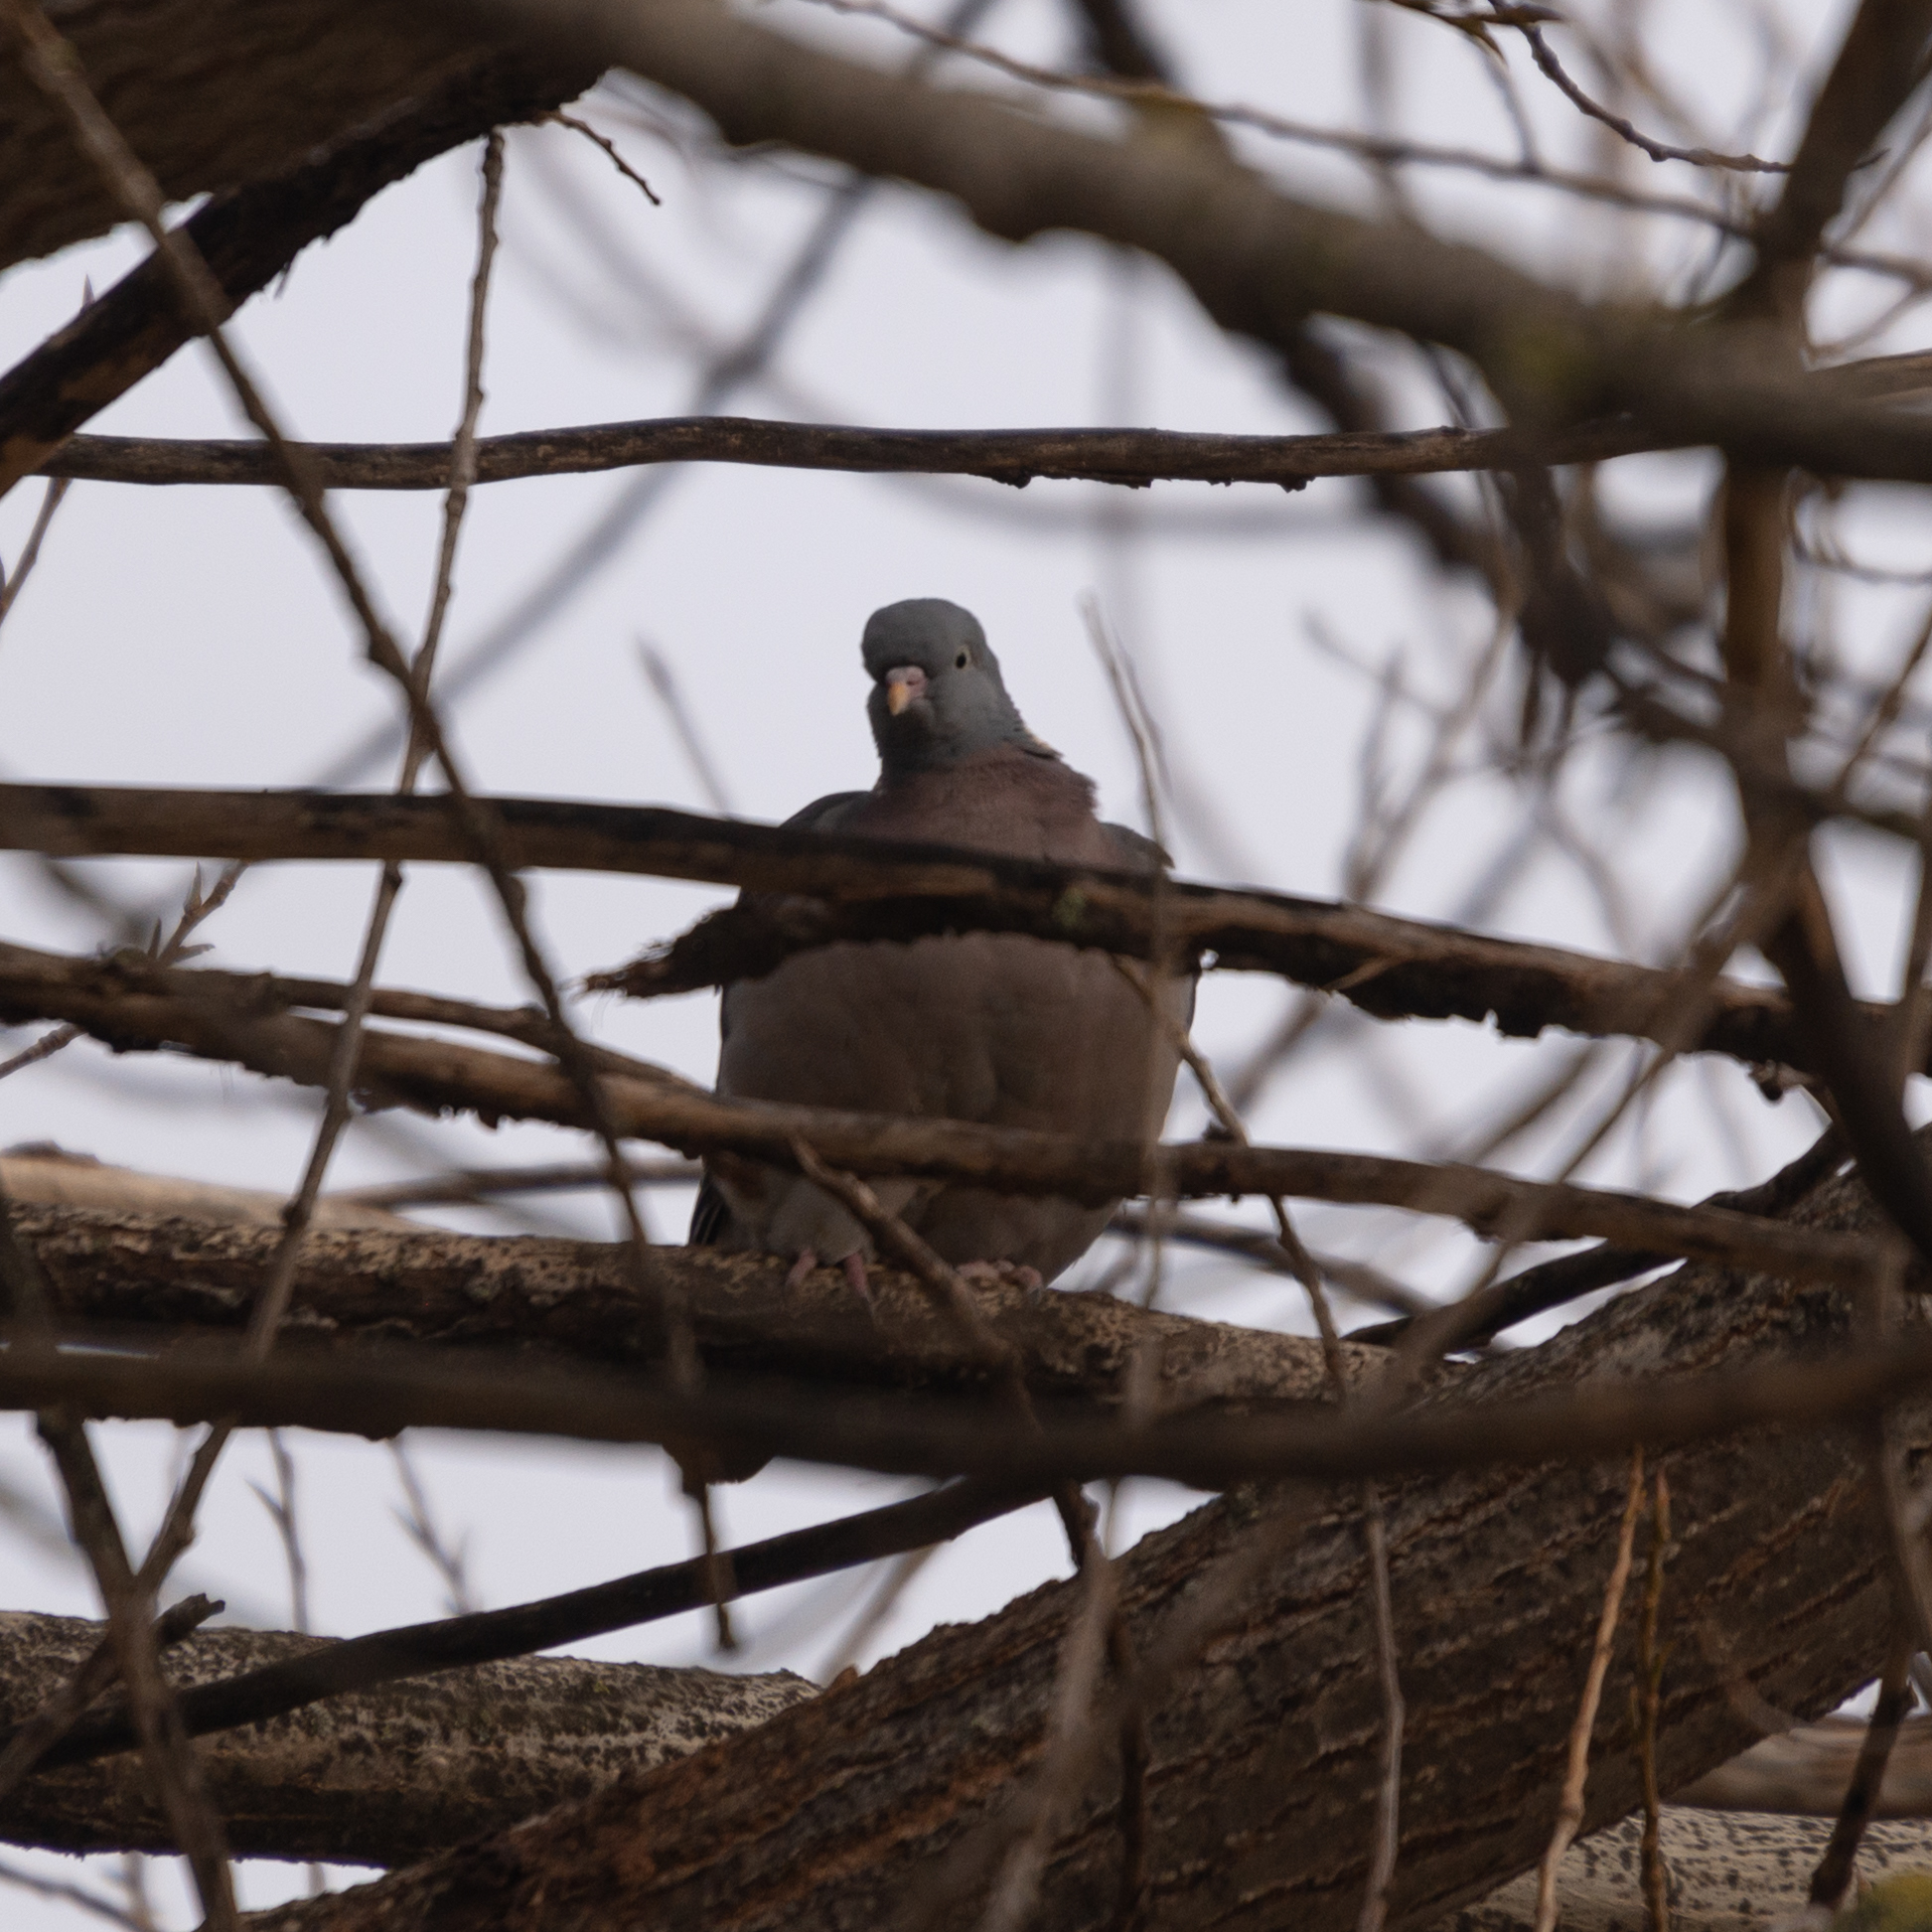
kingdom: Animalia
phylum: Chordata
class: Aves
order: Columbiformes
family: Columbidae
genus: Columba
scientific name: Columba palumbus
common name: Common wood pigeon
